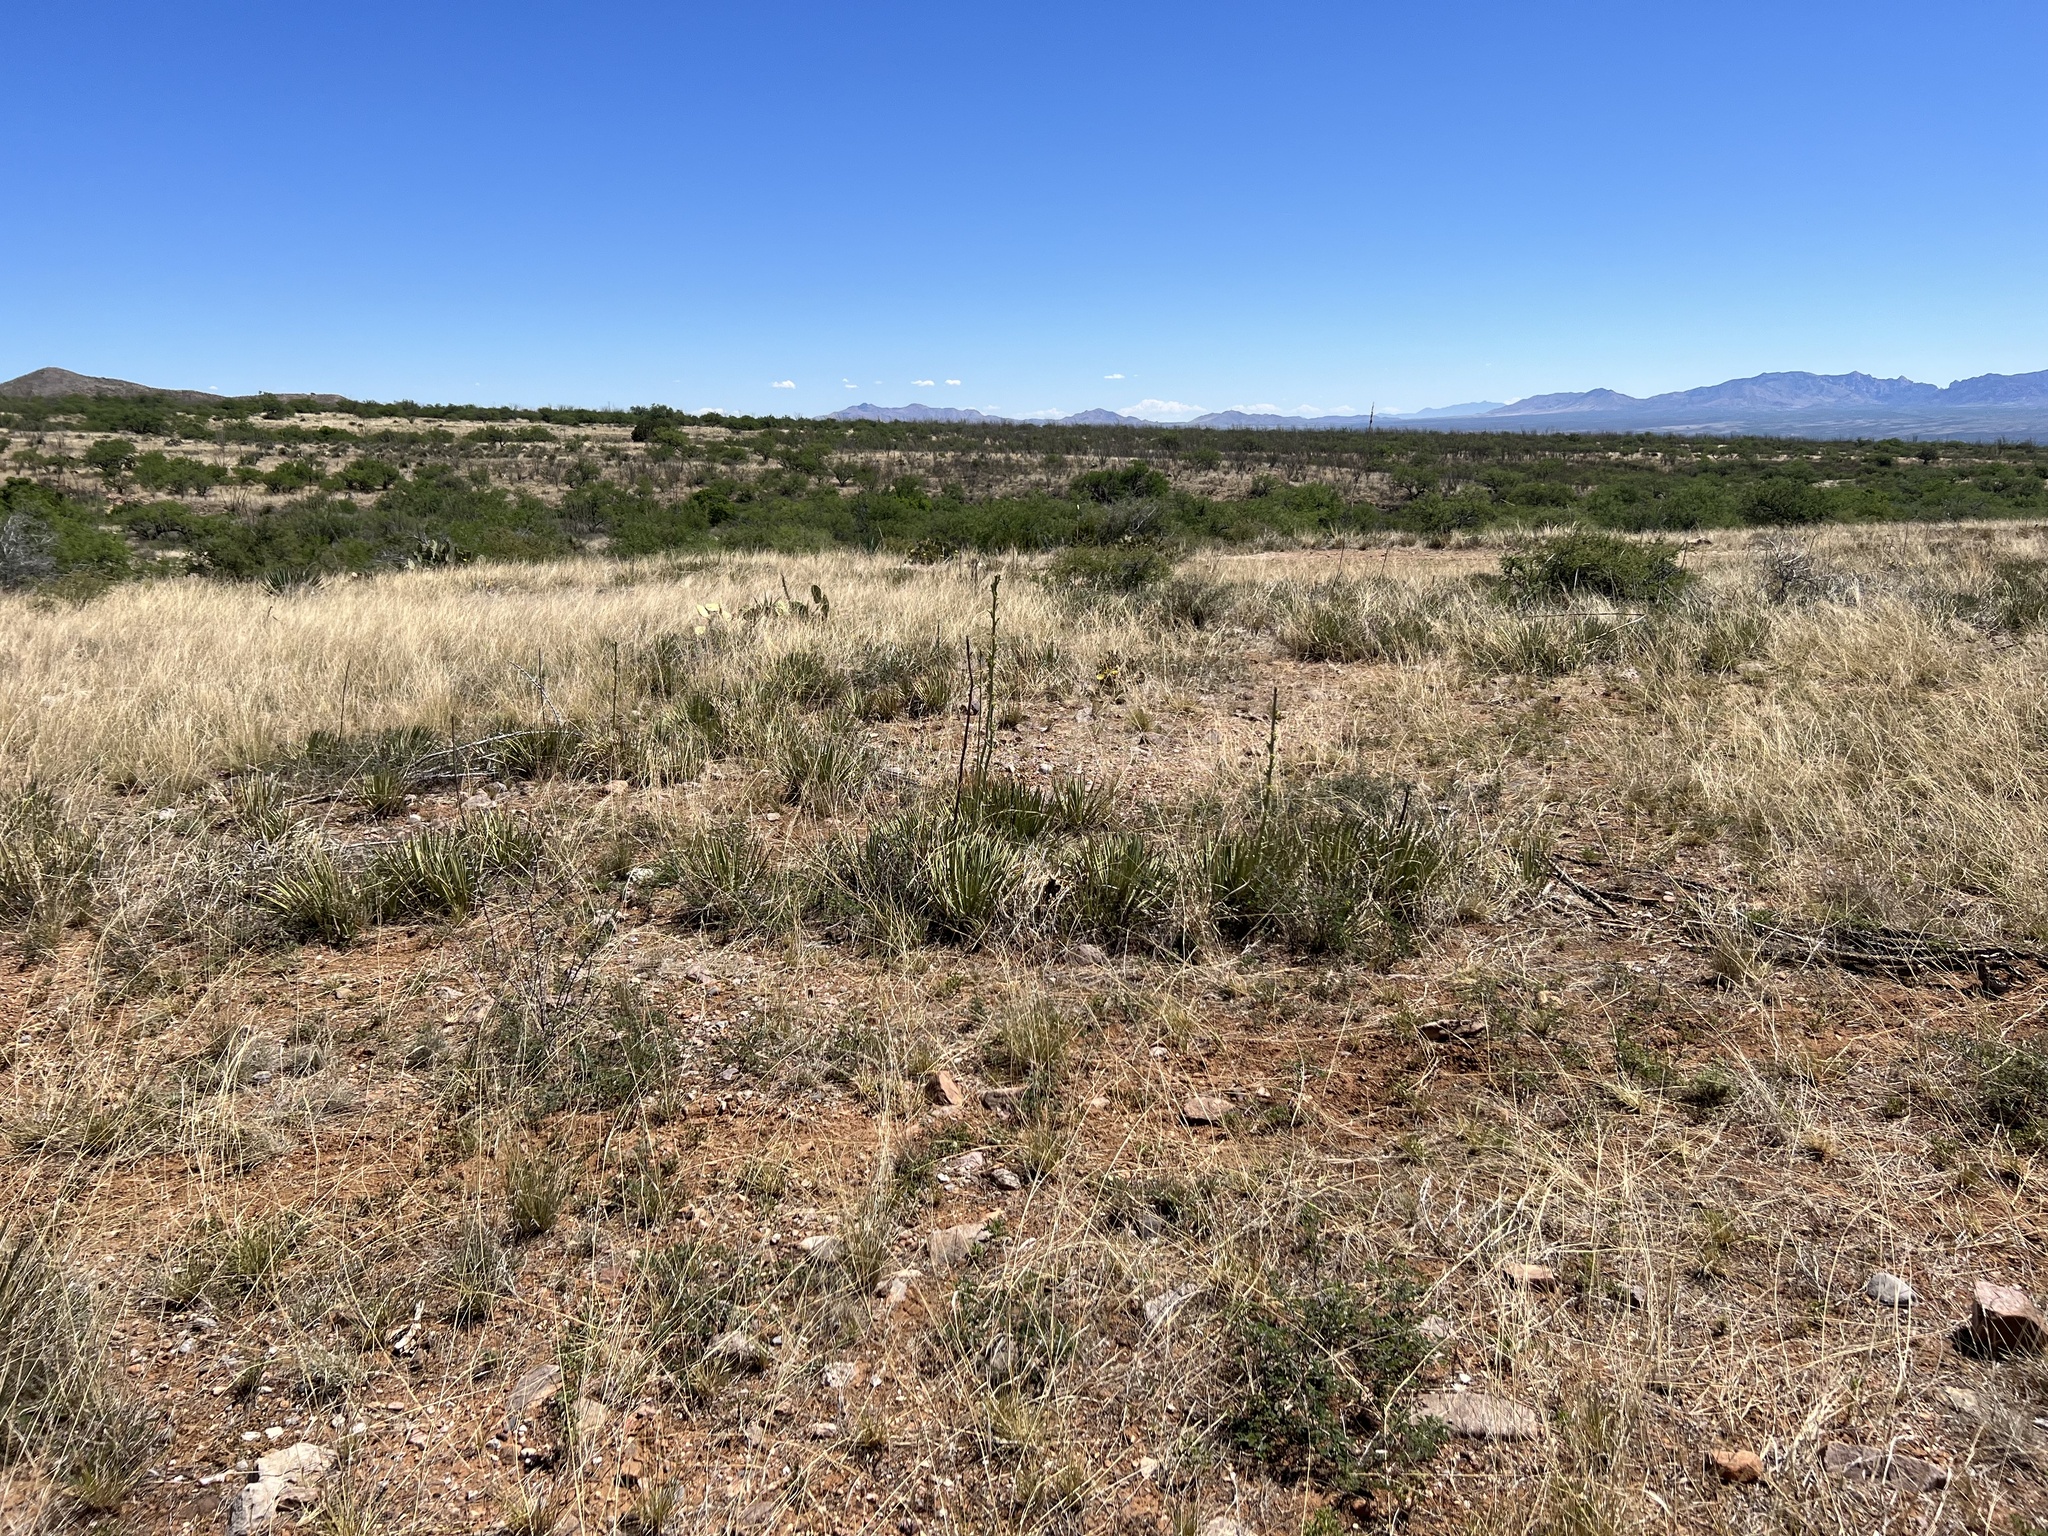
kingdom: Plantae
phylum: Tracheophyta
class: Liliopsida
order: Asparagales
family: Asparagaceae
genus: Agave
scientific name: Agave schottii
